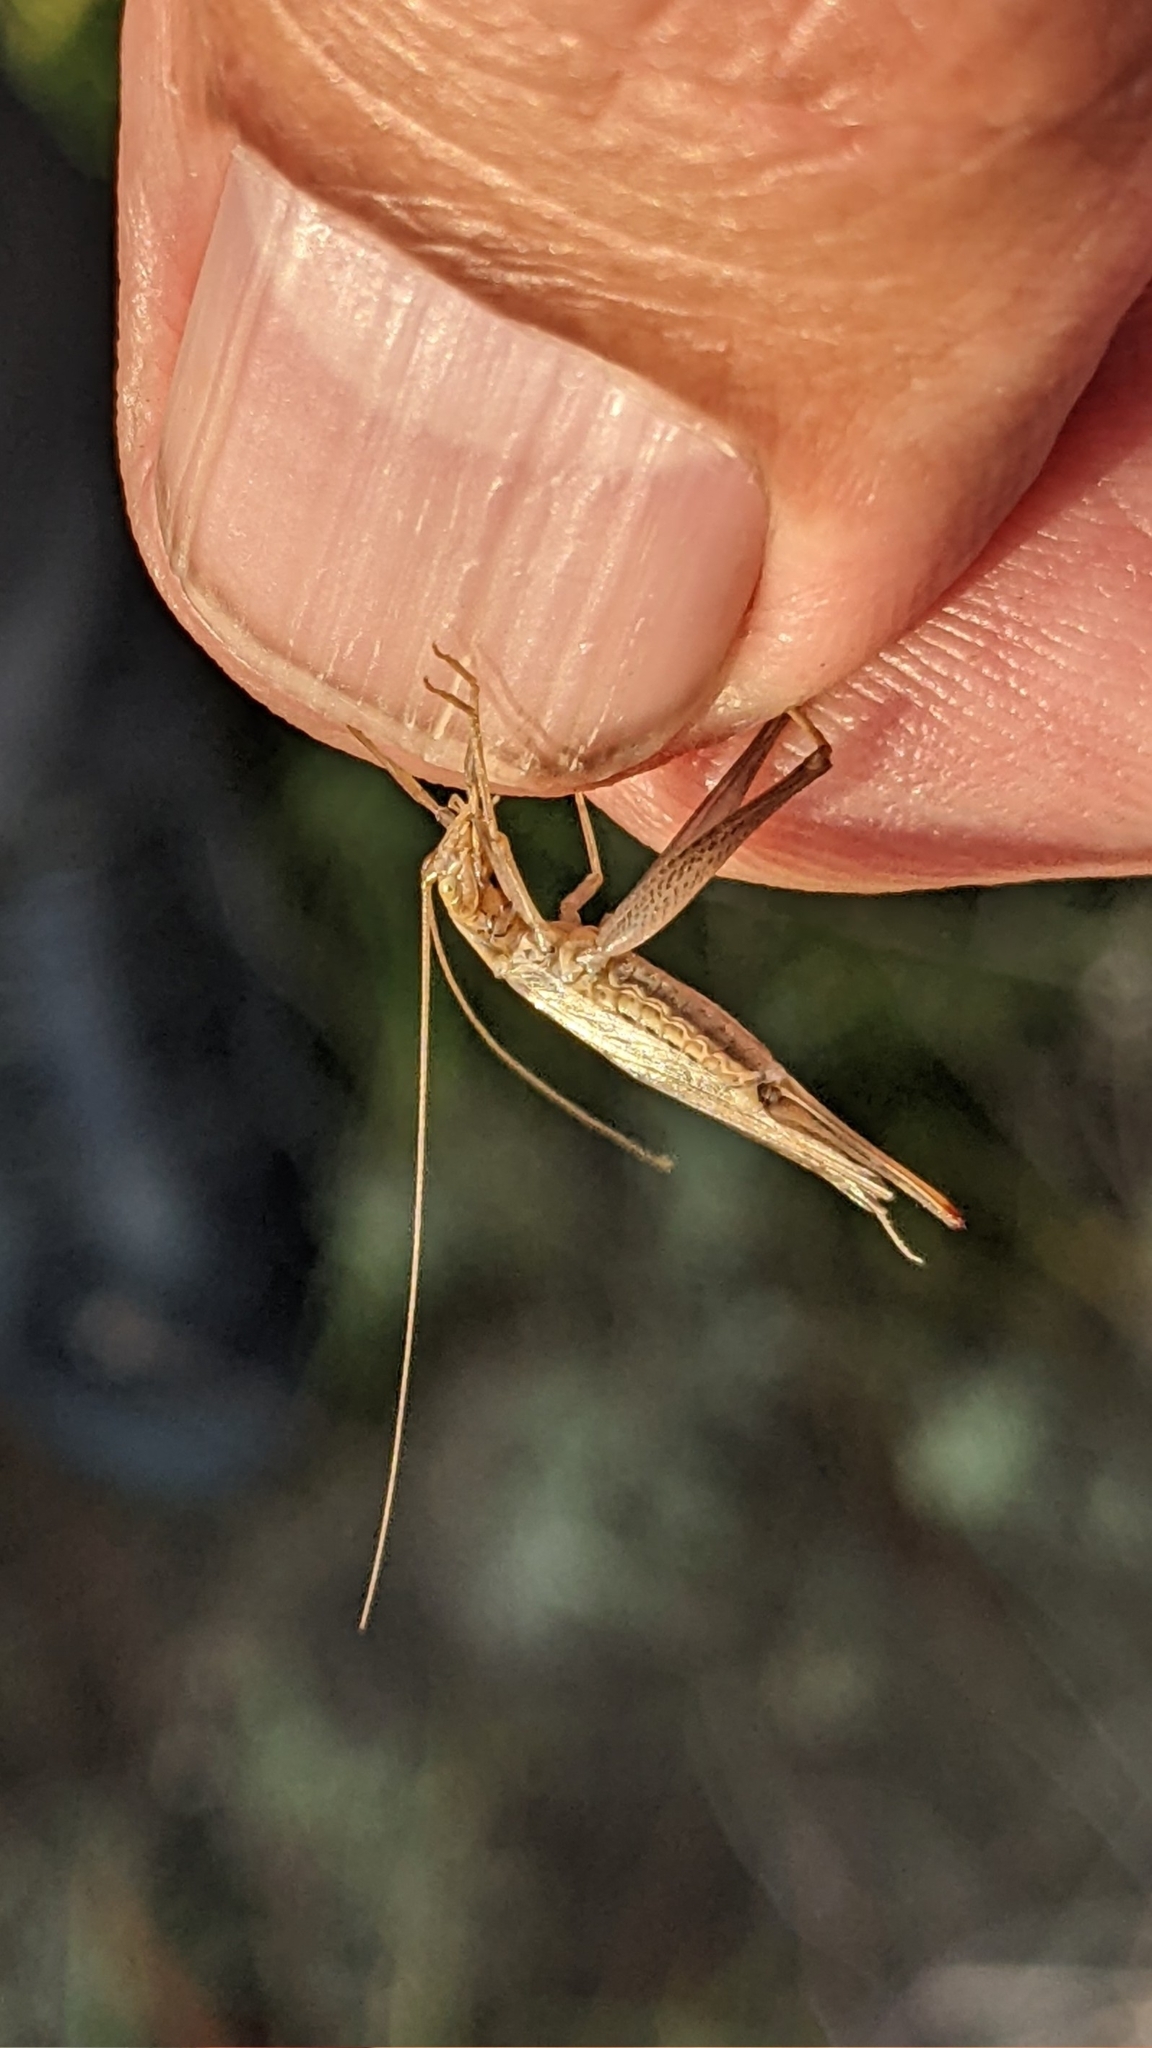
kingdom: Animalia
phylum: Arthropoda
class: Insecta
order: Orthoptera
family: Gryllidae
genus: Oecanthus
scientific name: Oecanthus pellucens
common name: Tree-cricket
